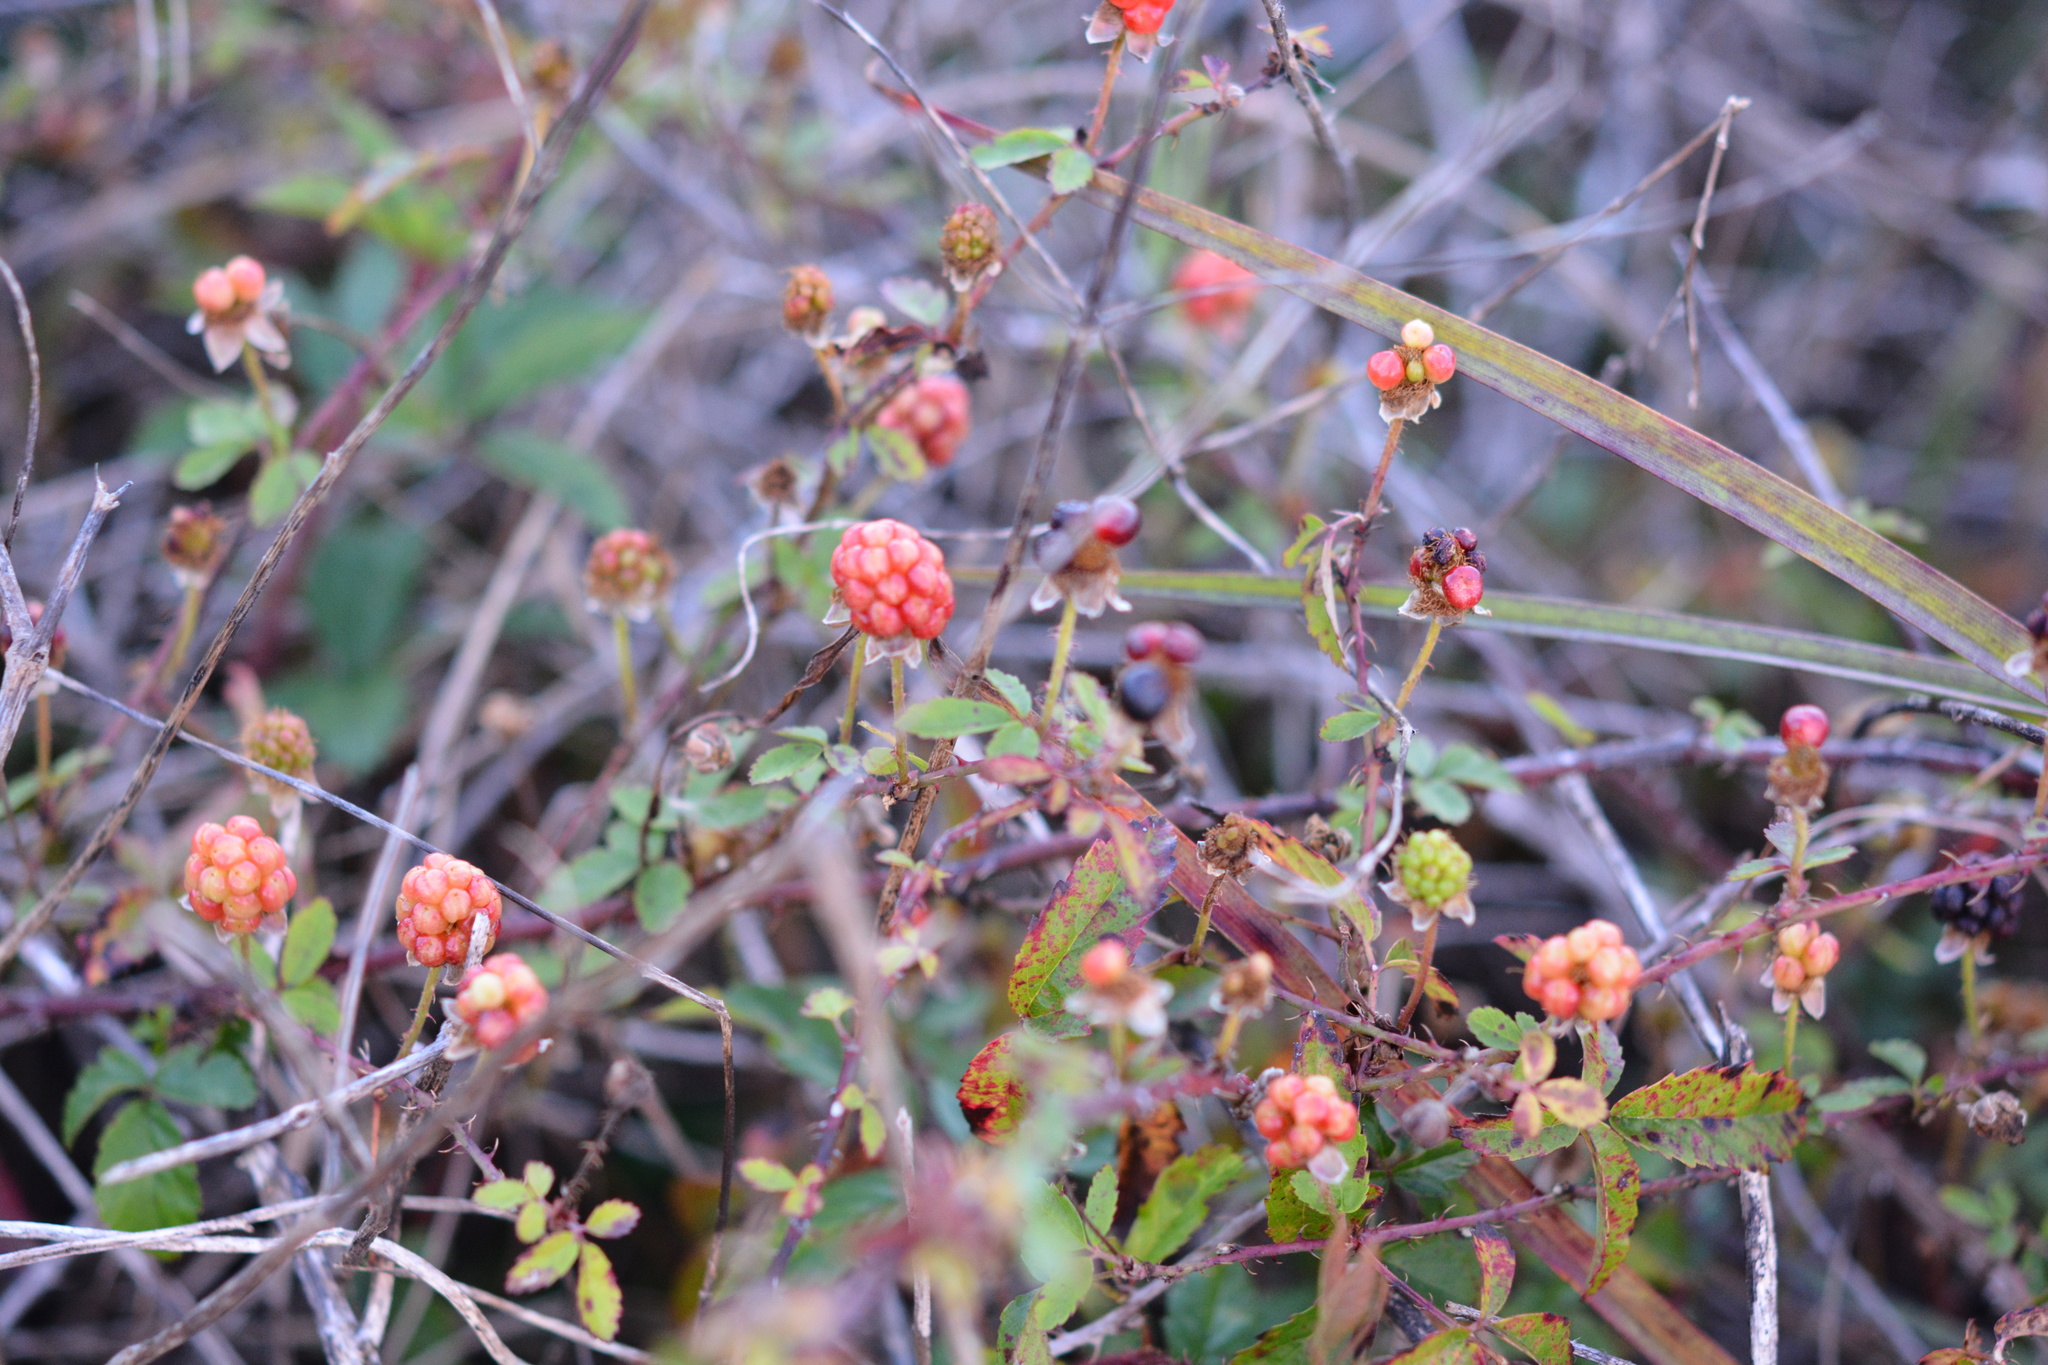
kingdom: Plantae
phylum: Tracheophyta
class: Magnoliopsida
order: Rosales
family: Rosaceae
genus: Rubus
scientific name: Rubus trivialis
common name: Southern dewberry
